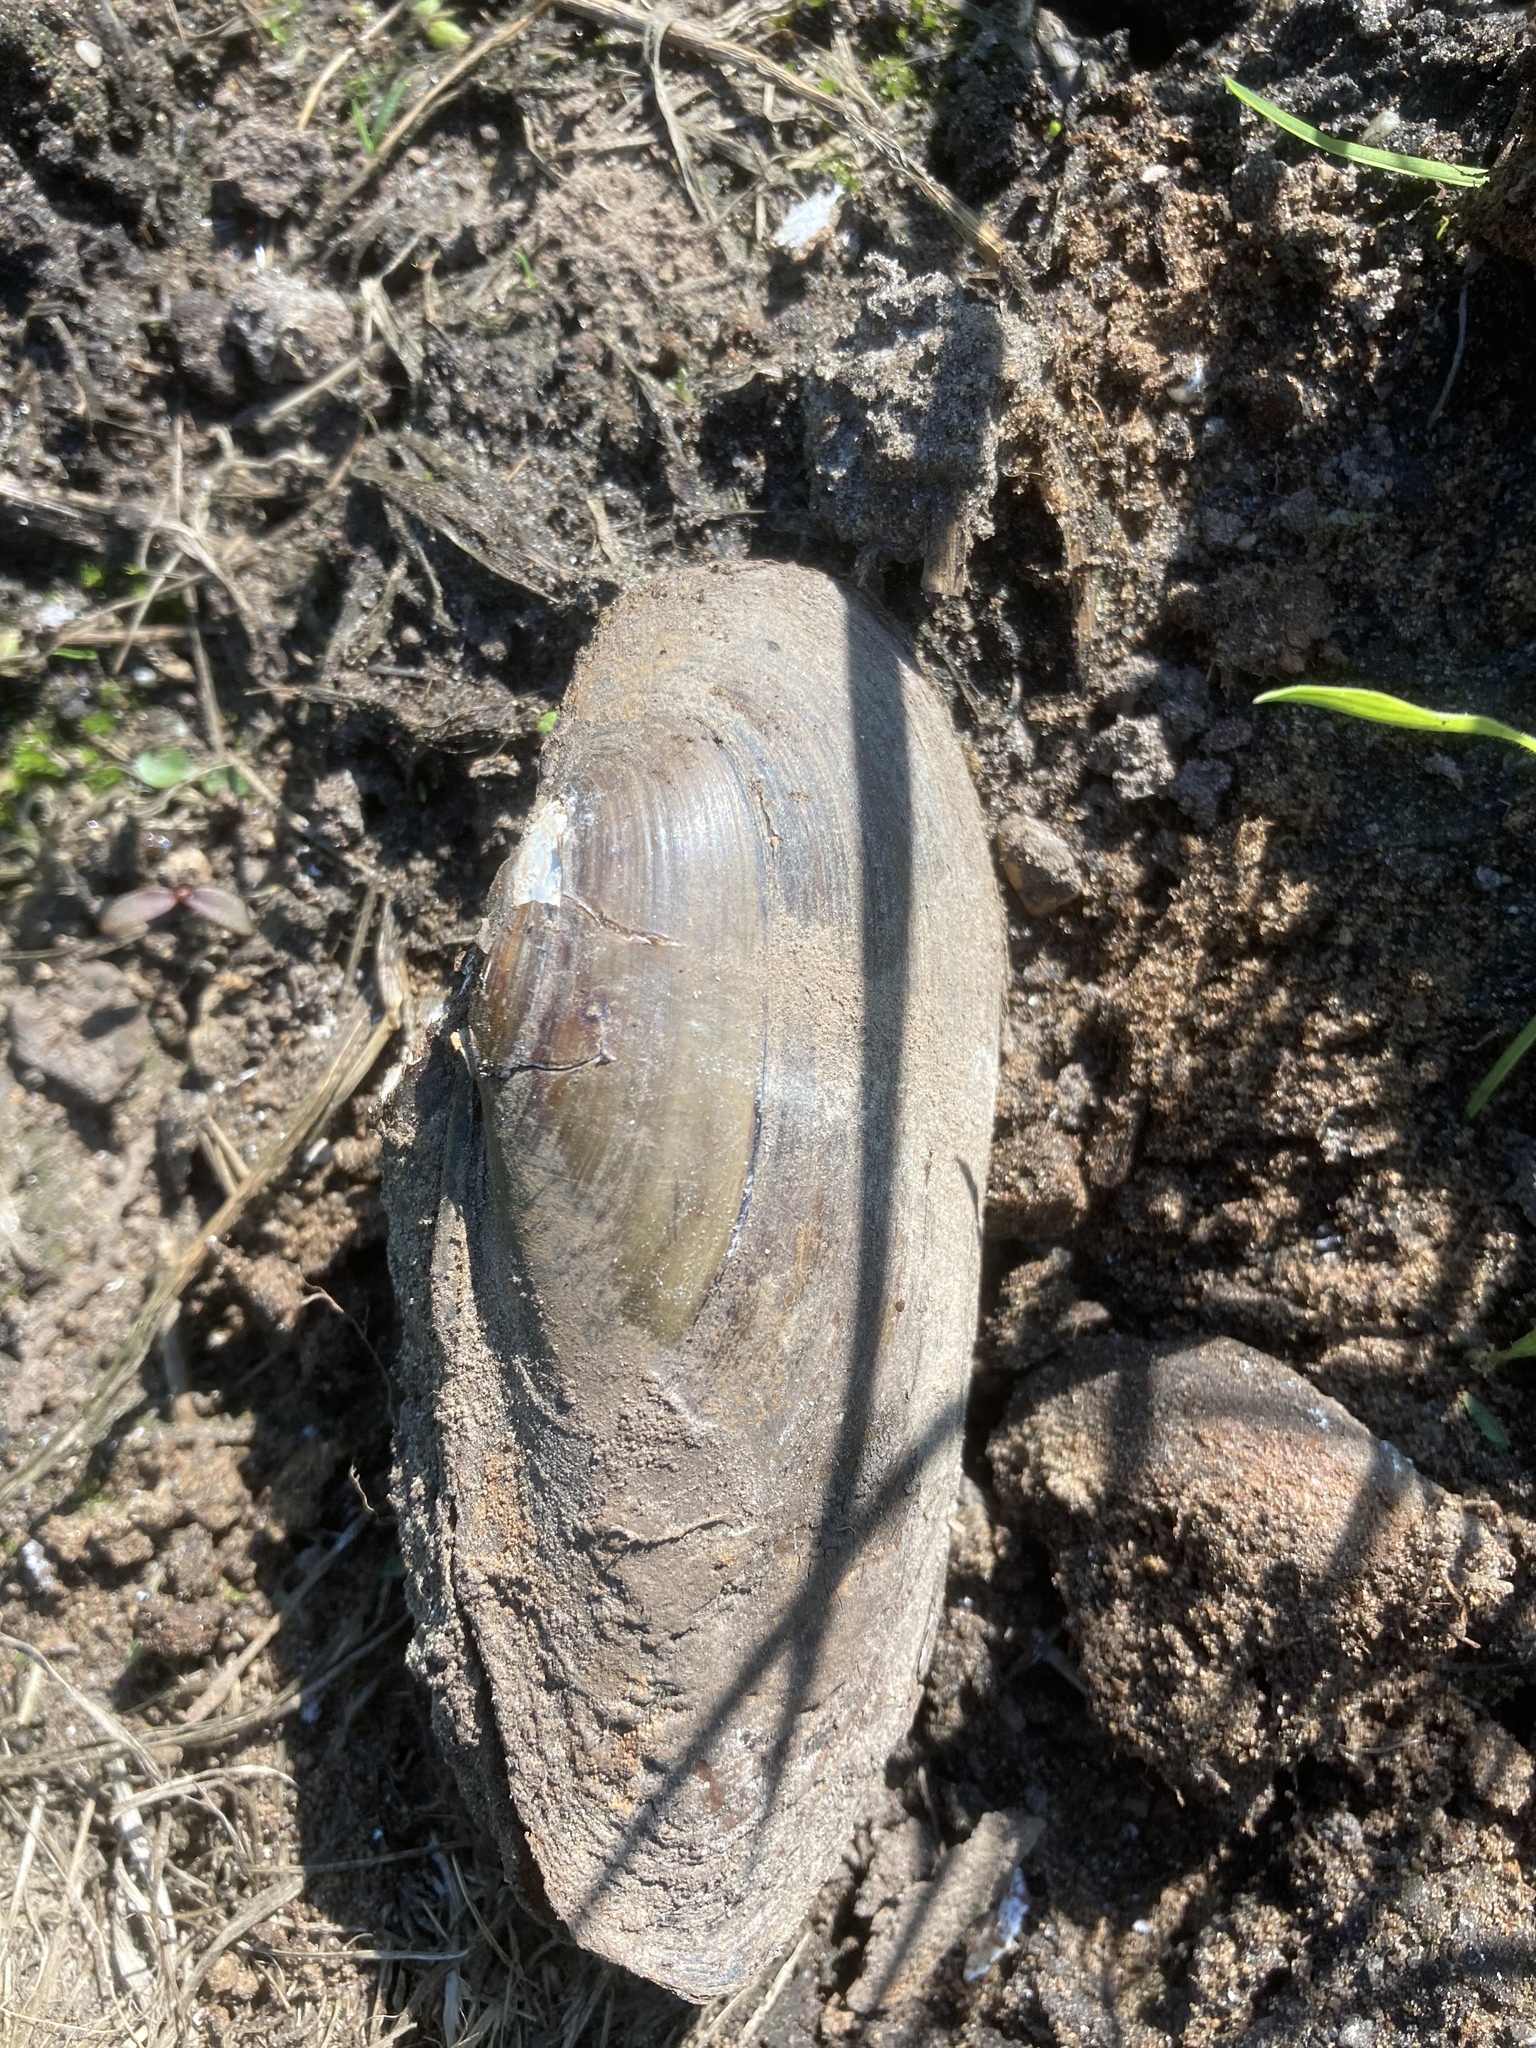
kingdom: Animalia
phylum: Mollusca
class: Bivalvia
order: Unionida
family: Unionidae
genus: Unio
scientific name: Unio pictorum
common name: Painter's mussel
